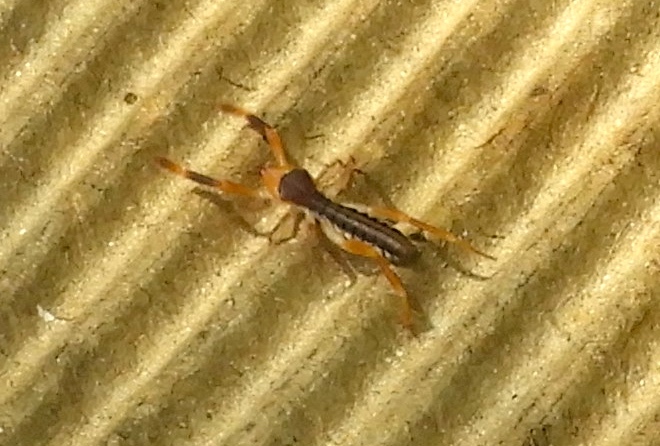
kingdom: Animalia
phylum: Arthropoda
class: Arachnida
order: Solifugae
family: Ammotrechidae
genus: Ammotrechula
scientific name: Ammotrechula boneti
